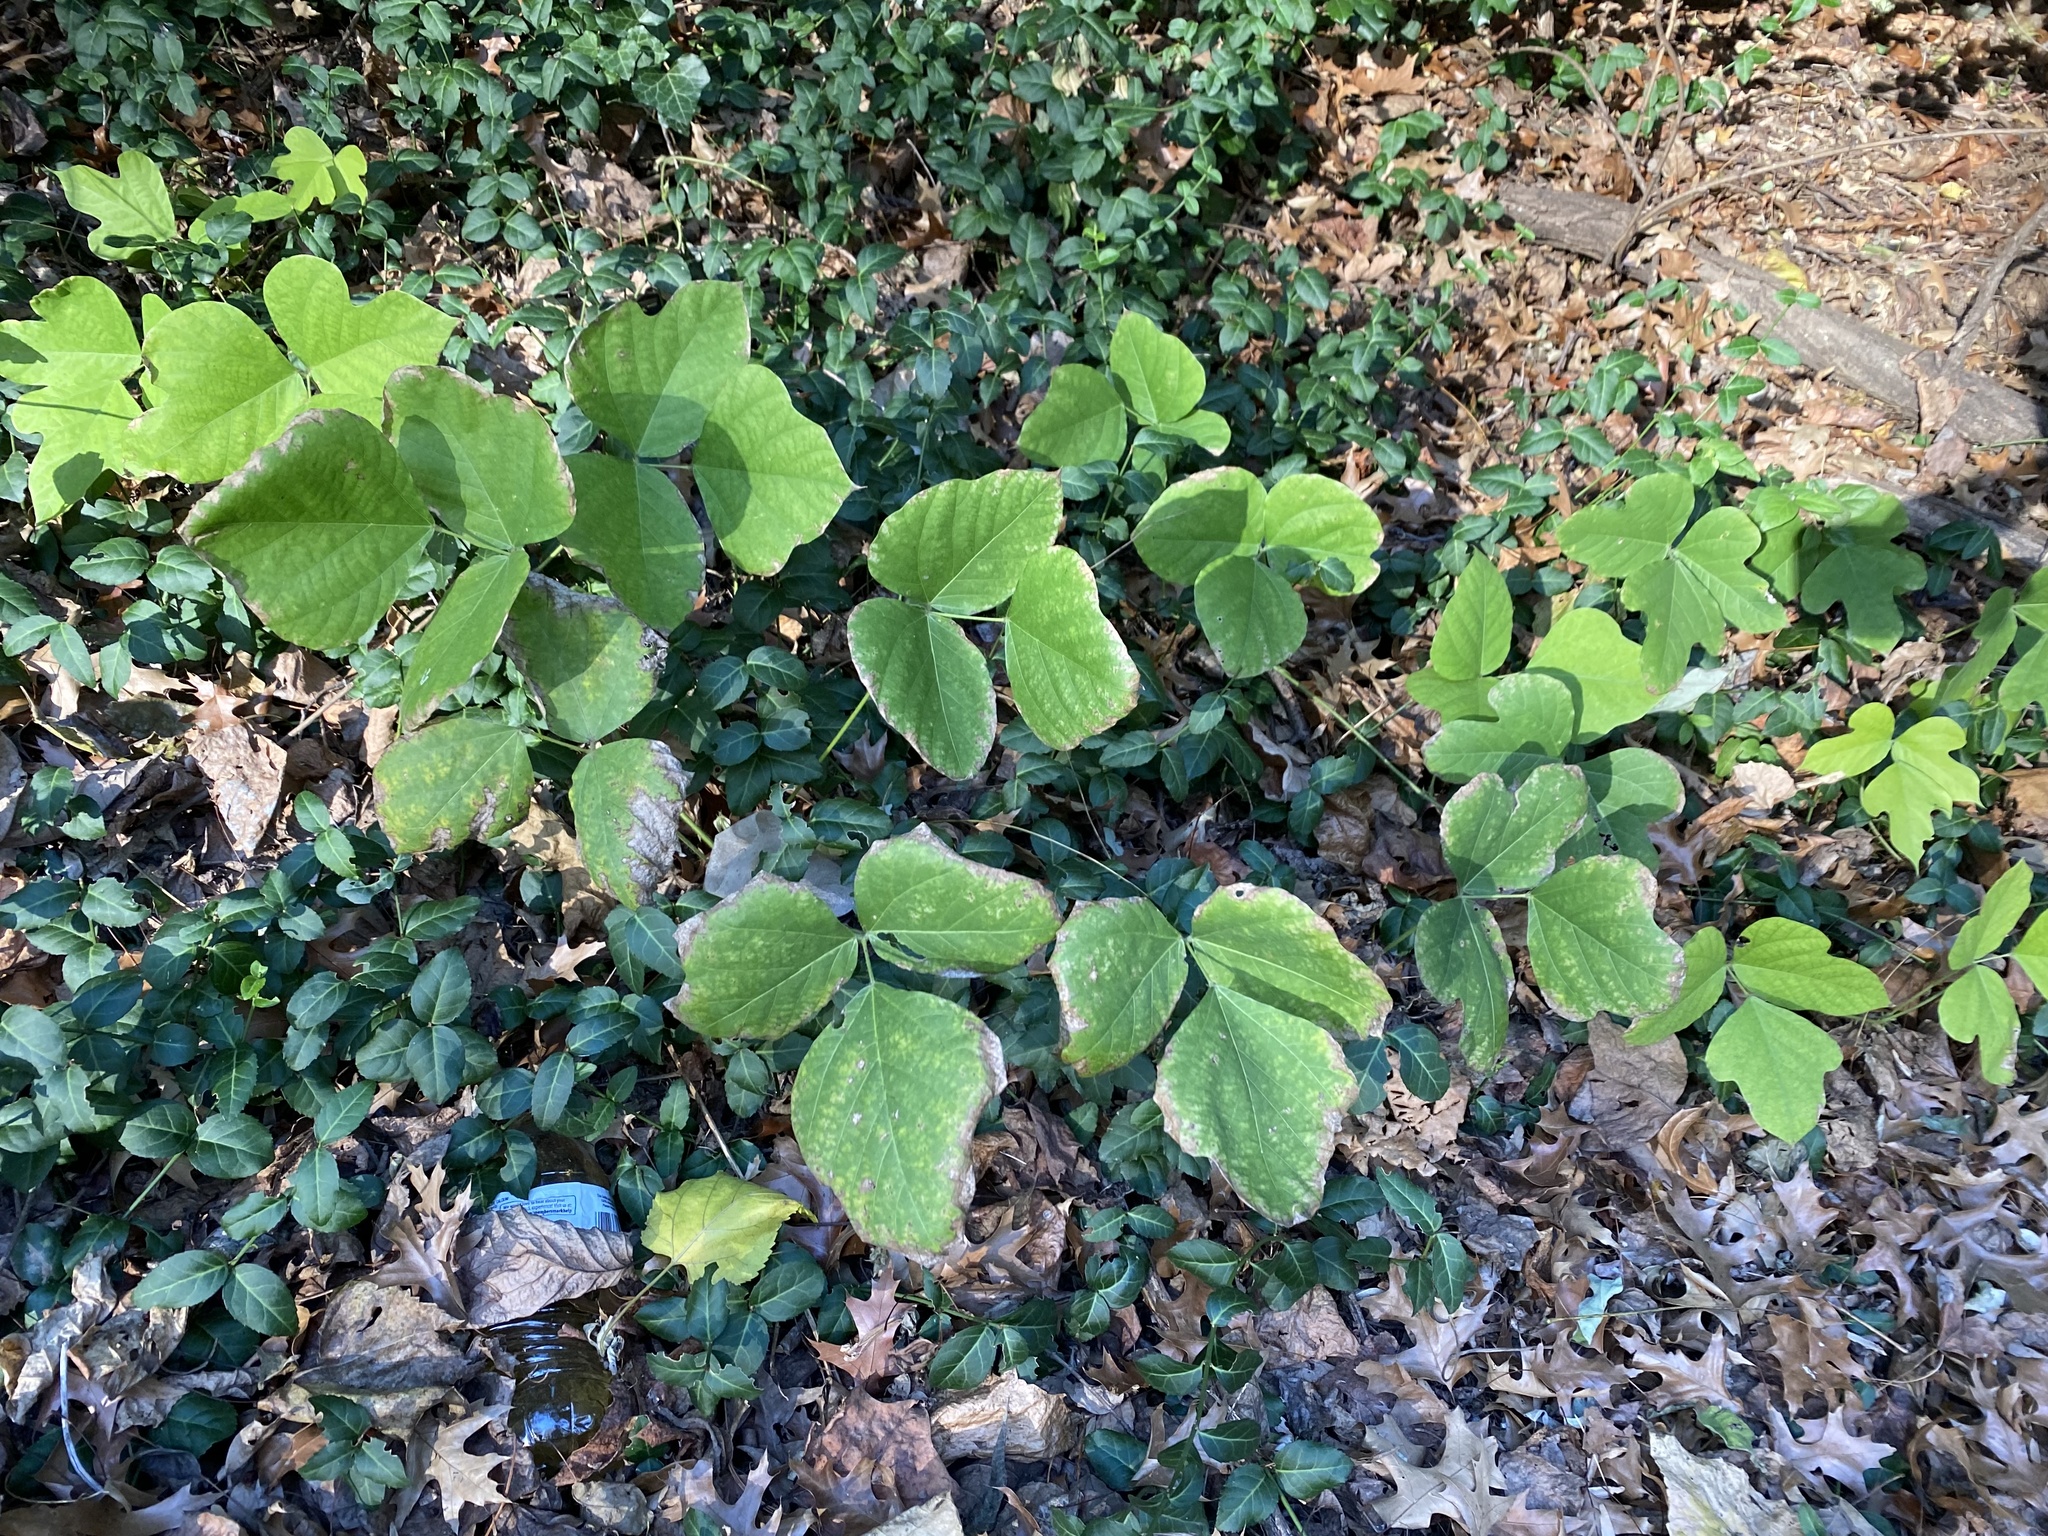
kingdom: Plantae
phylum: Tracheophyta
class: Magnoliopsida
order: Fabales
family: Fabaceae
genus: Pueraria
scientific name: Pueraria montana
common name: Kudzu
